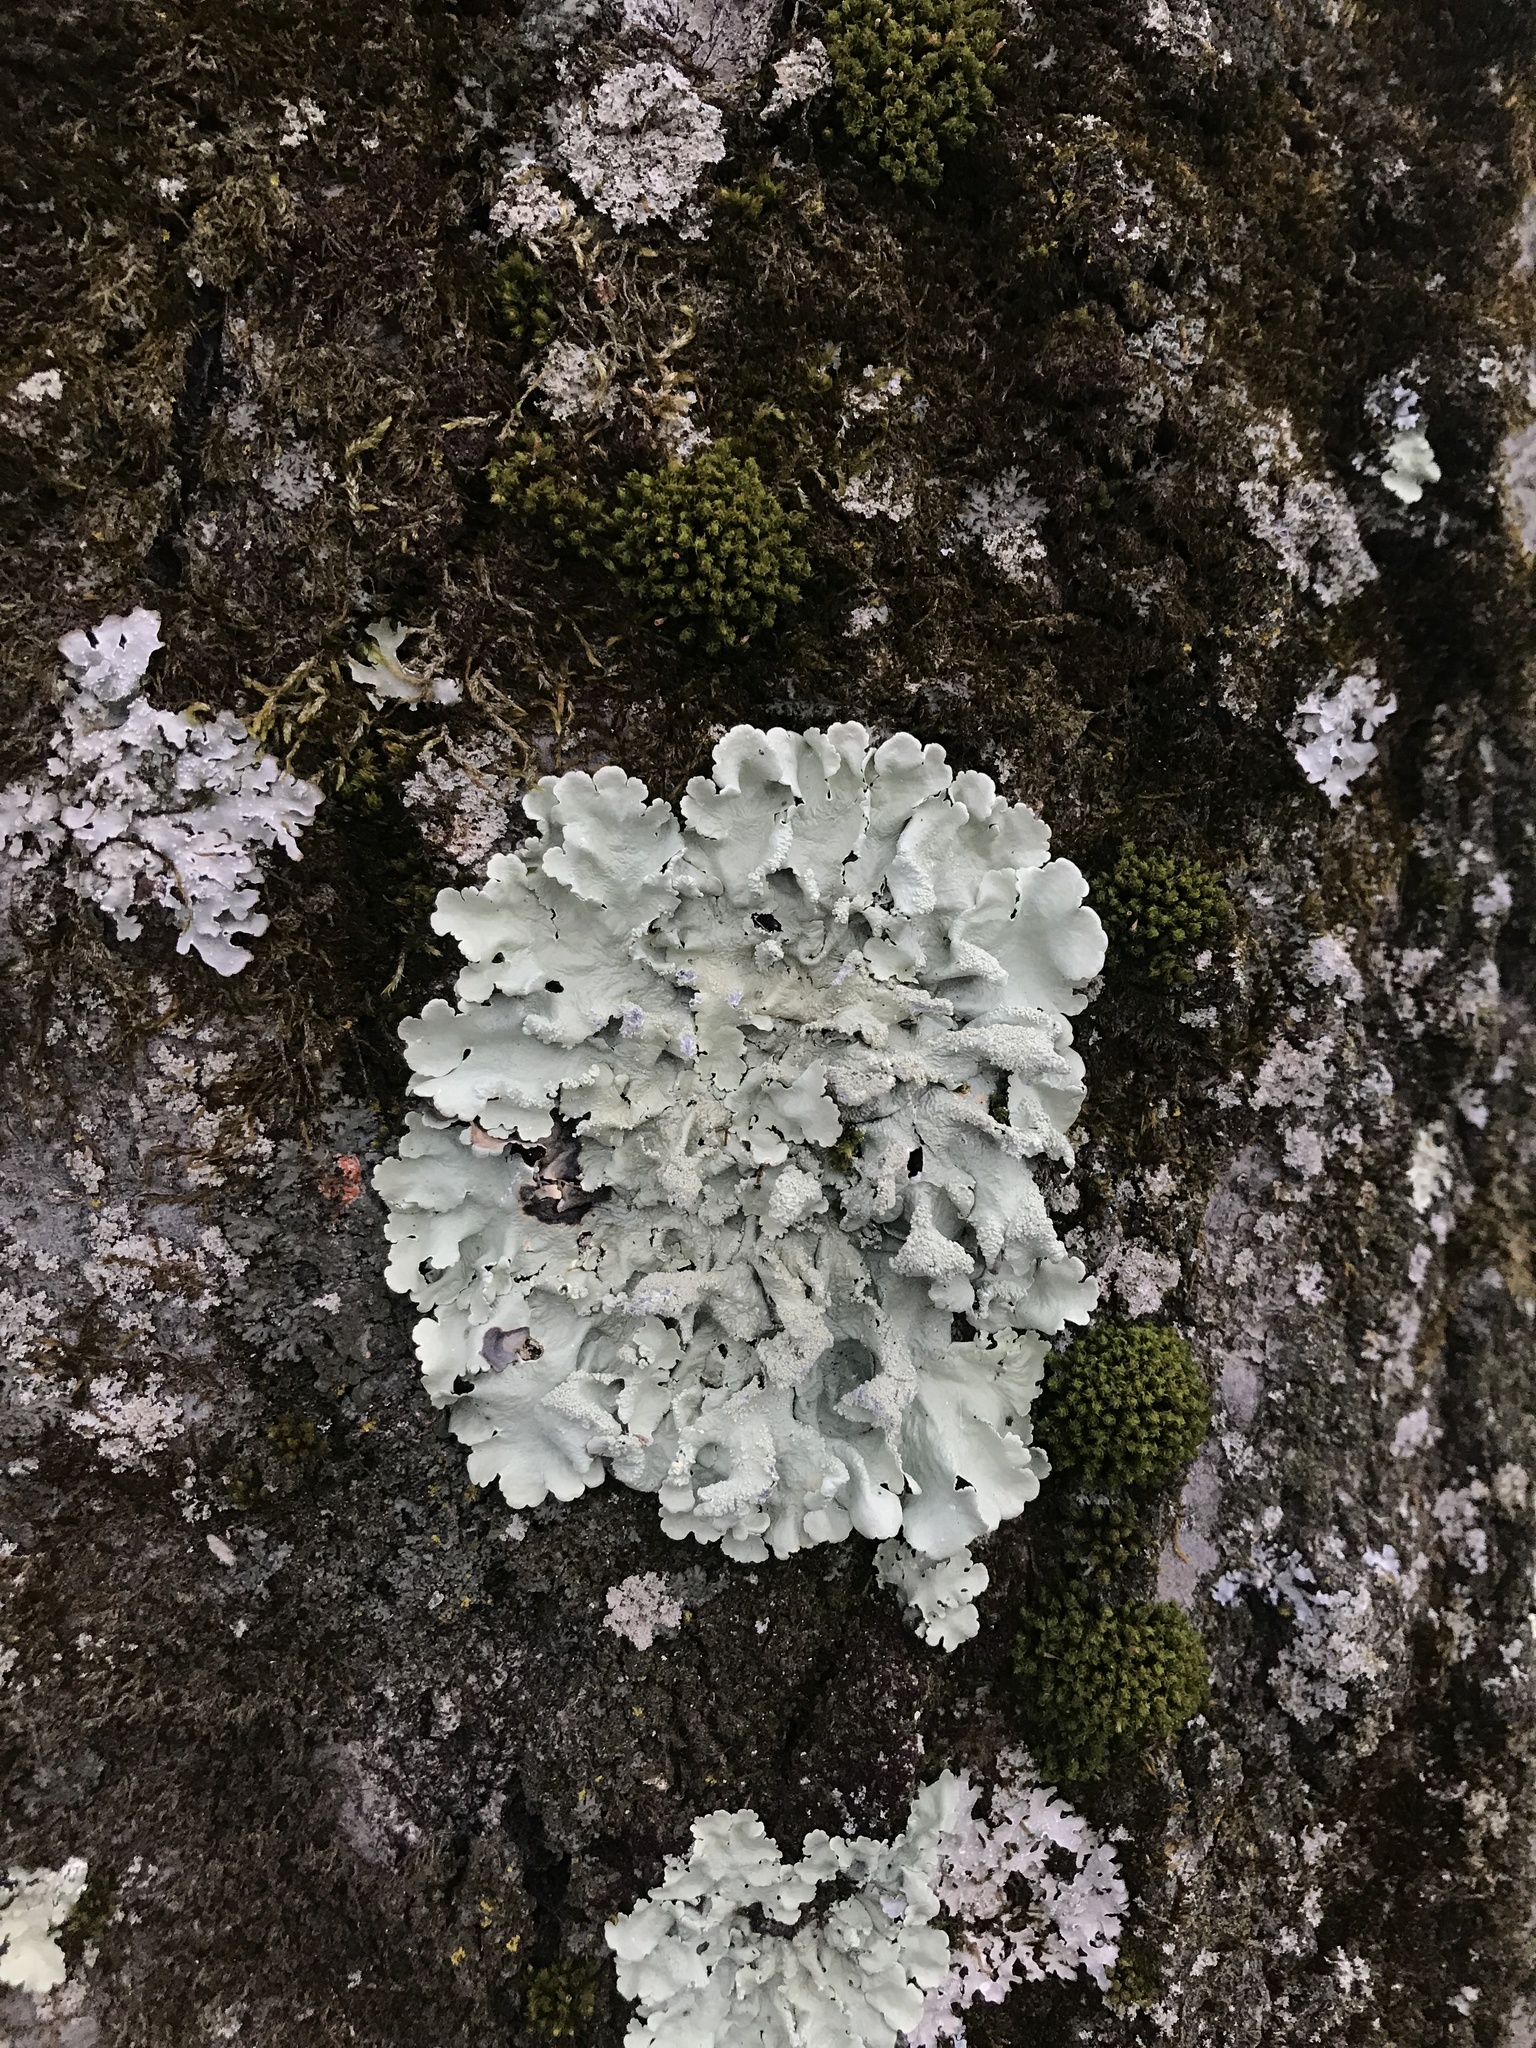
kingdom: Fungi
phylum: Ascomycota
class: Lecanoromycetes
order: Lecanorales
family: Parmeliaceae
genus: Flavoparmelia
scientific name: Flavoparmelia caperata
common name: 40-mile per hour lichen
